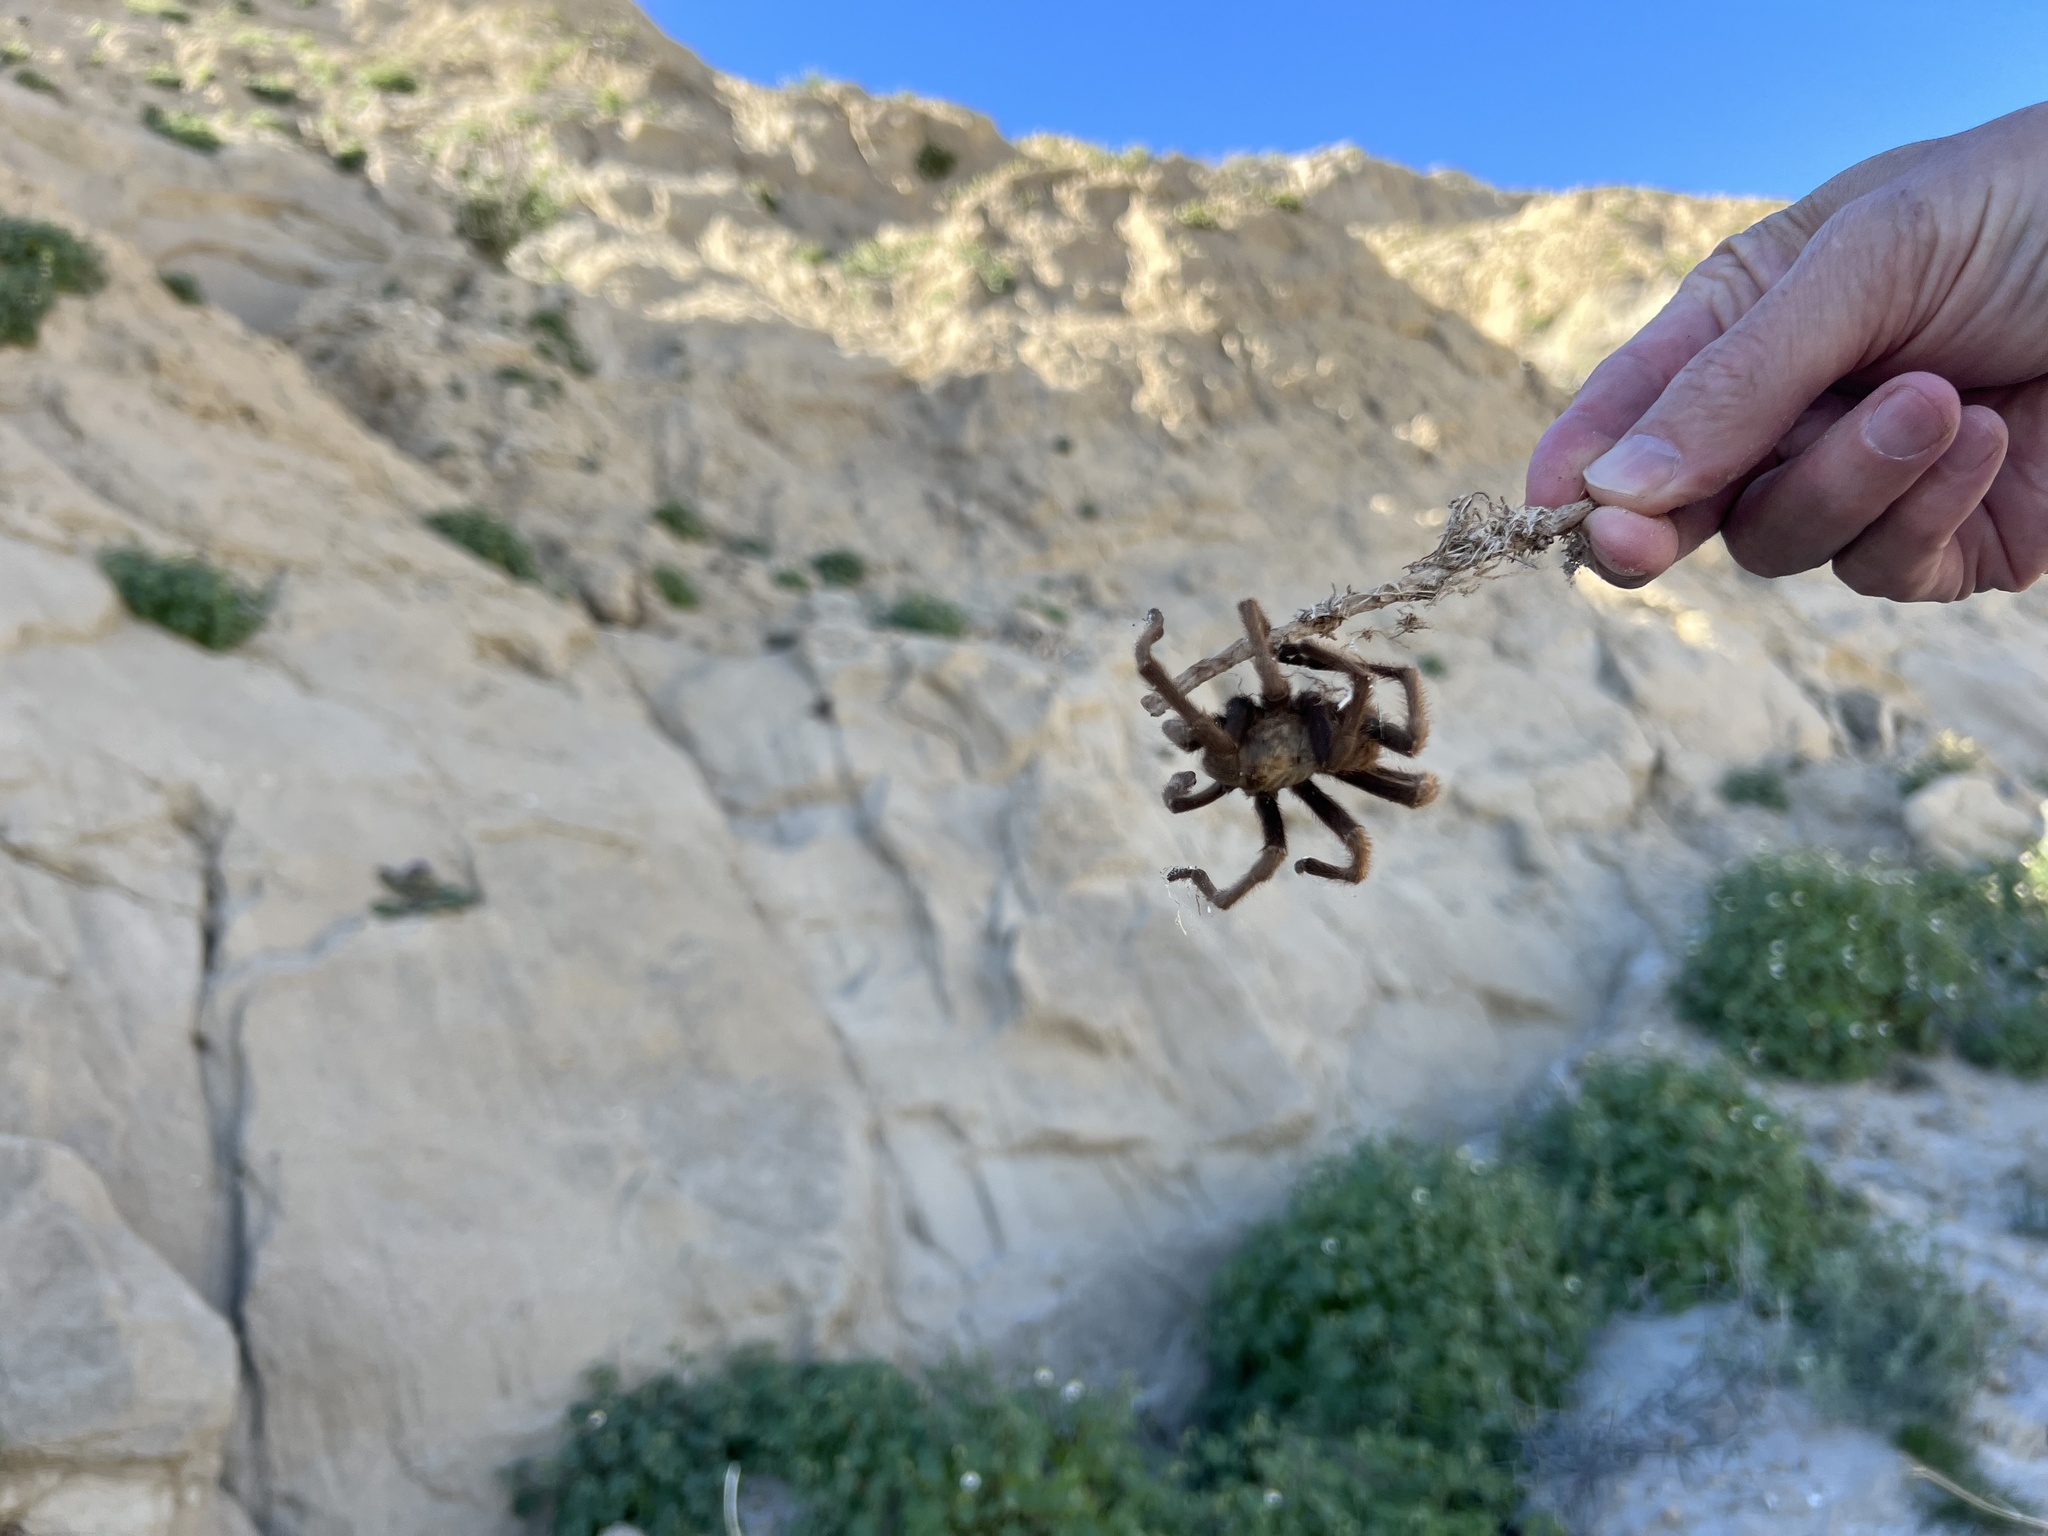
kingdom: Animalia
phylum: Arthropoda
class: Arachnida
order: Araneae
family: Theraphosidae
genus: Aphonopelma
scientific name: Aphonopelma eutylenum
